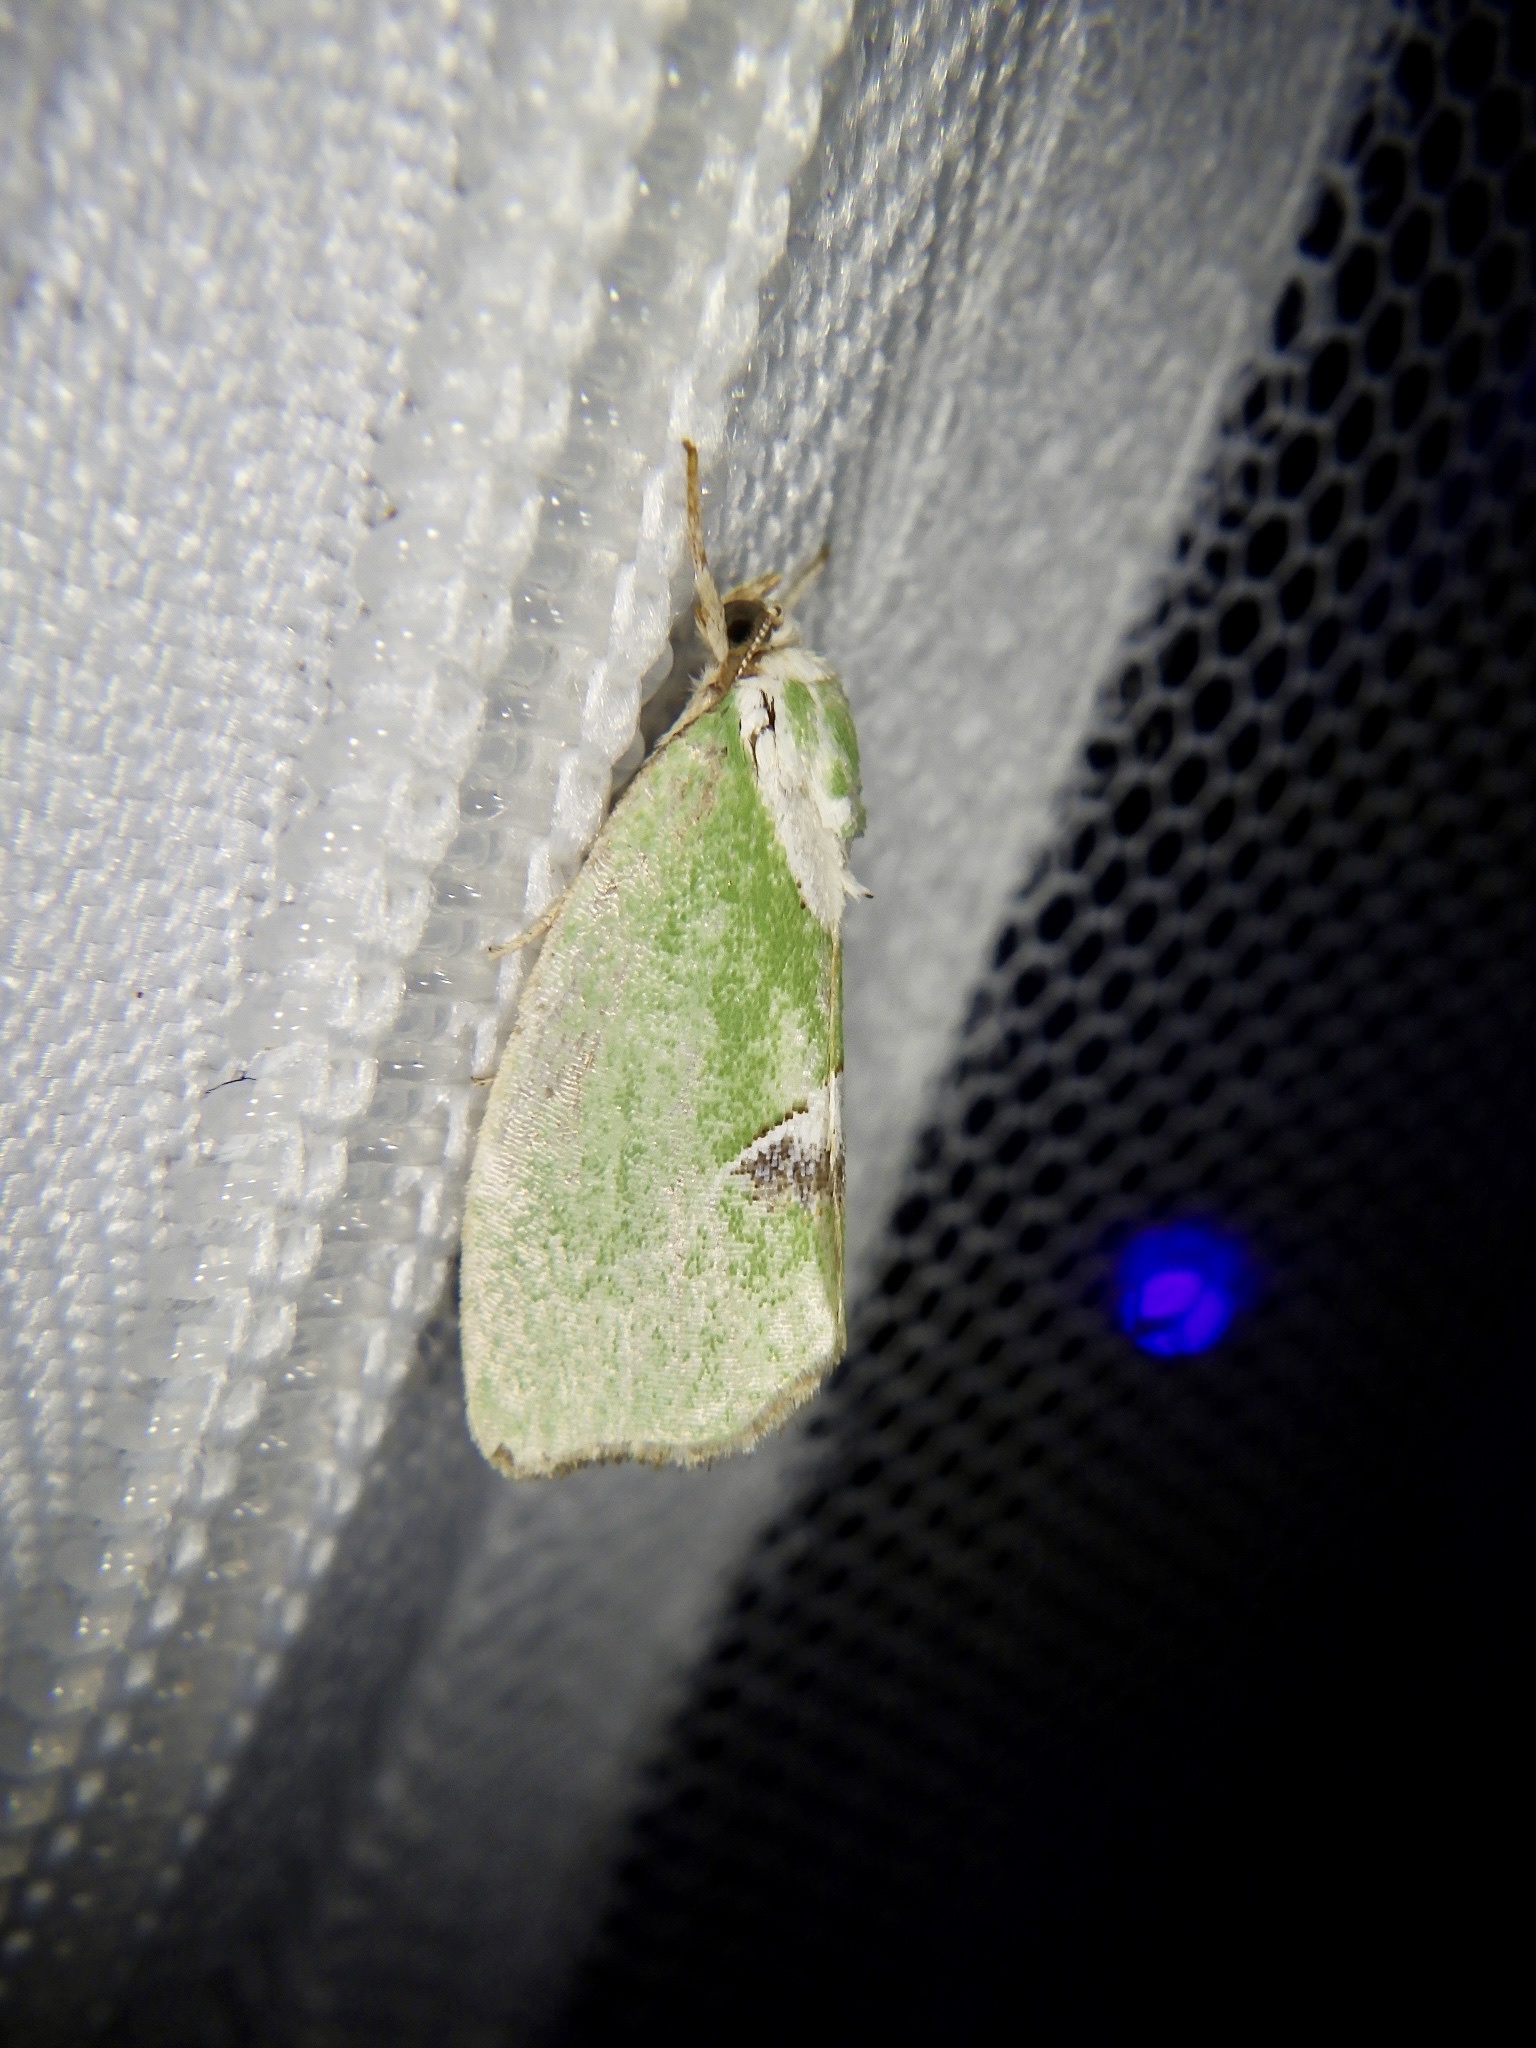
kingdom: Animalia
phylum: Arthropoda
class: Insecta
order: Lepidoptera
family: Nolidae
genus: Parhylophila
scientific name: Parhylophila celsiana
